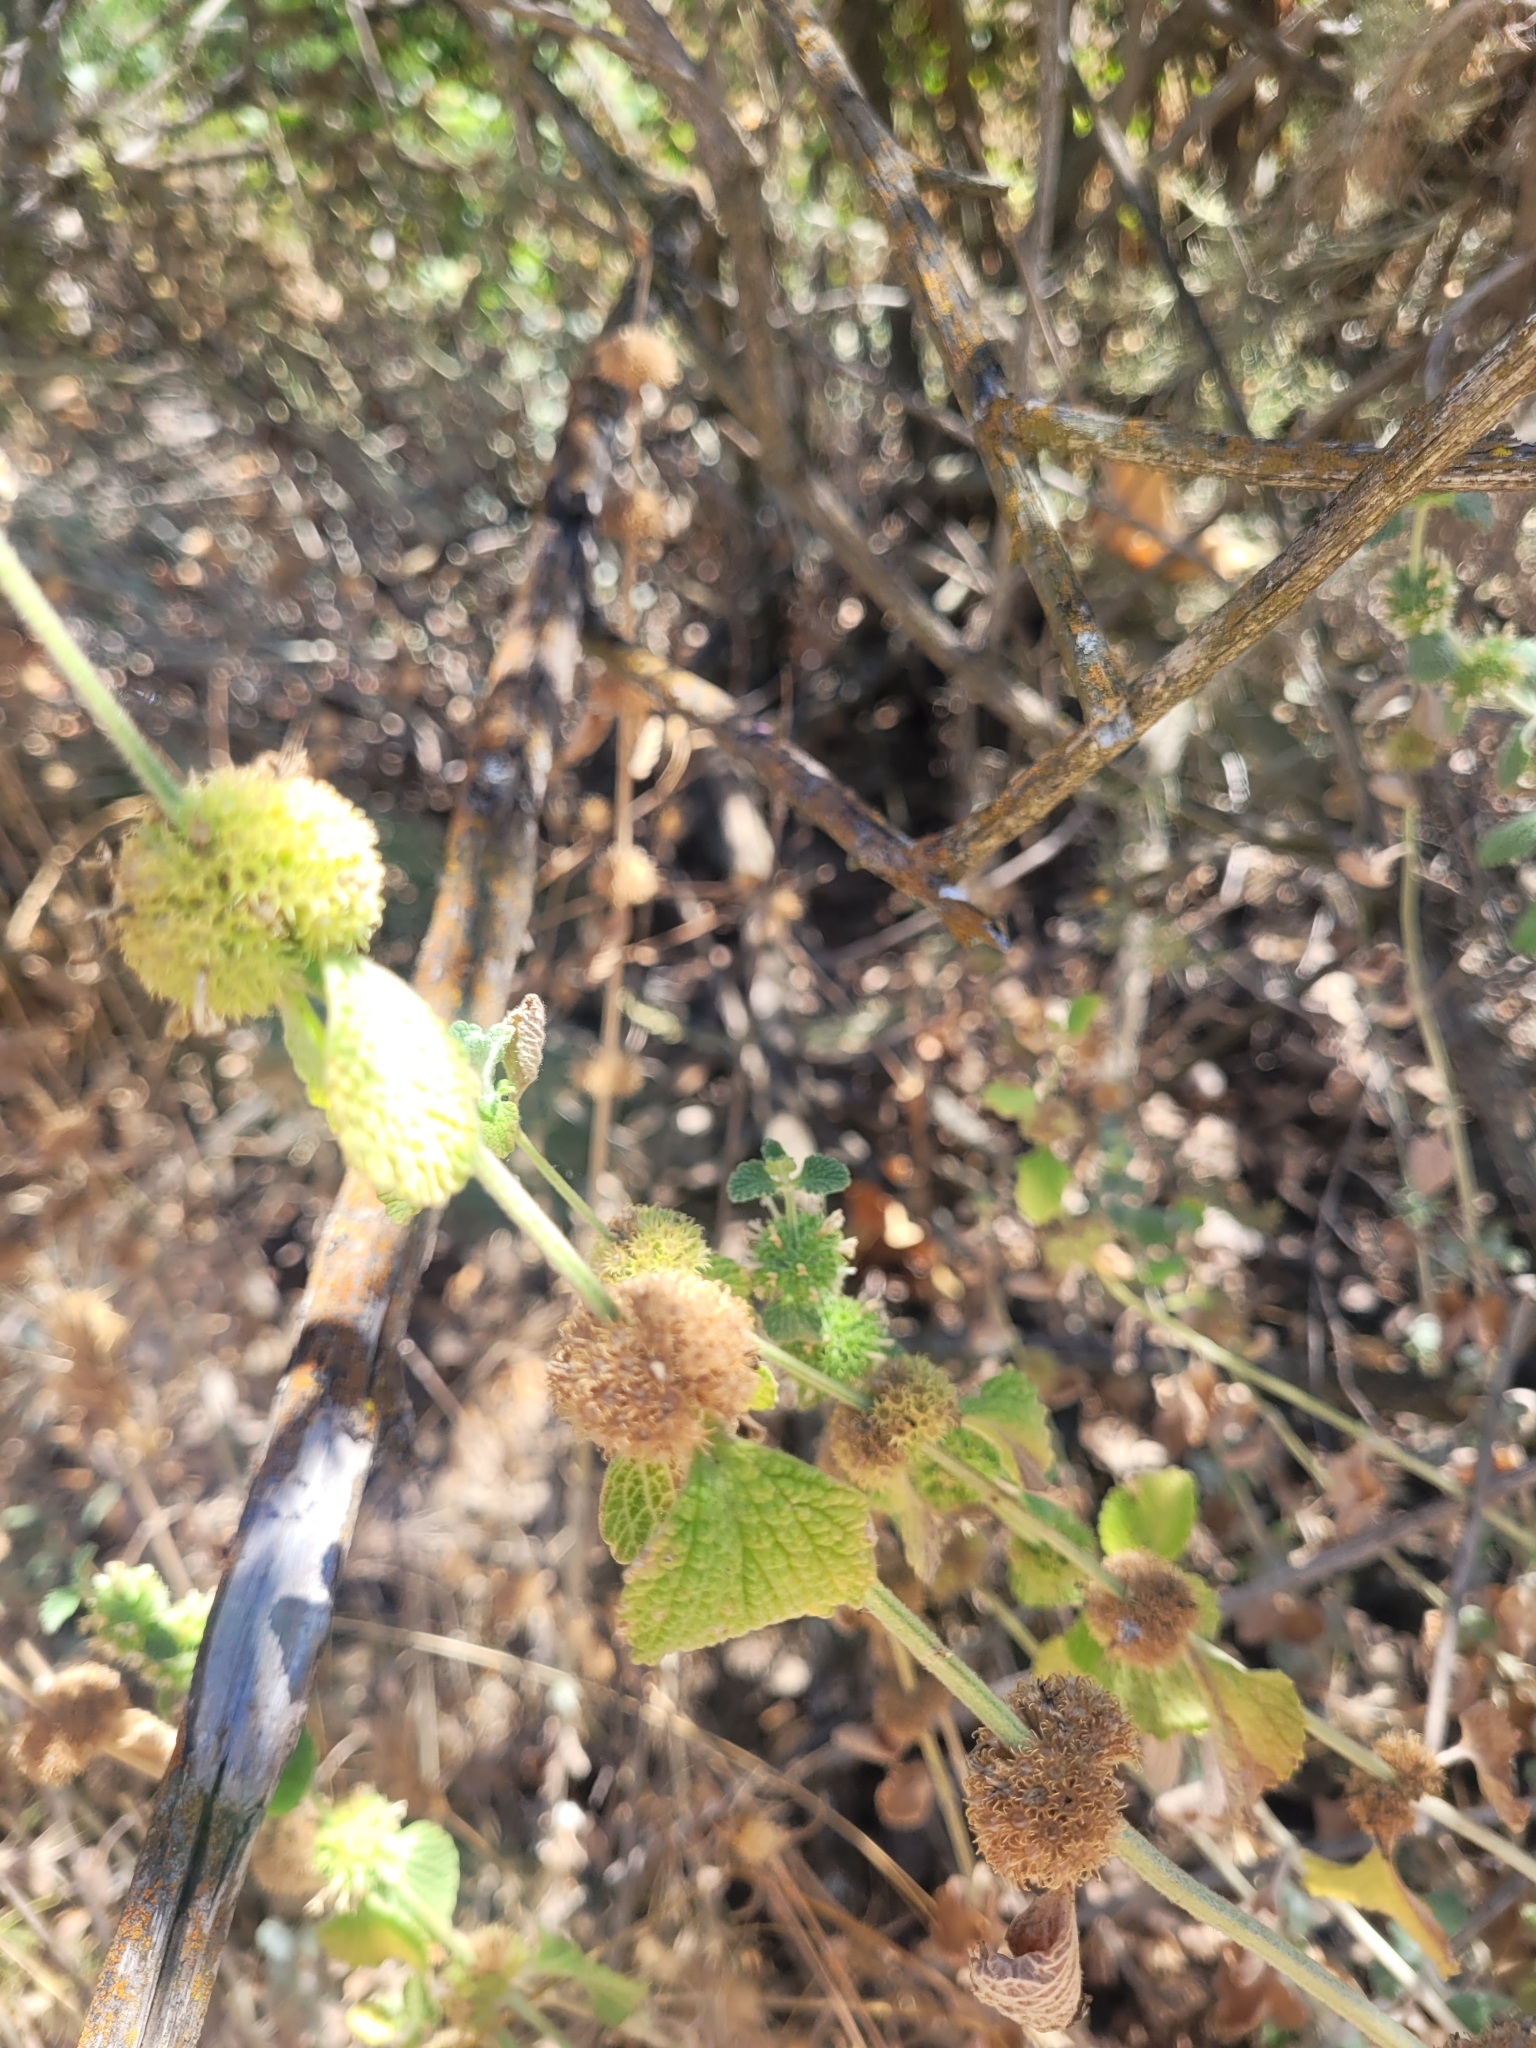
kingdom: Plantae
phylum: Tracheophyta
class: Magnoliopsida
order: Lamiales
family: Lamiaceae
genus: Marrubium
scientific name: Marrubium vulgare
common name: Horehound
